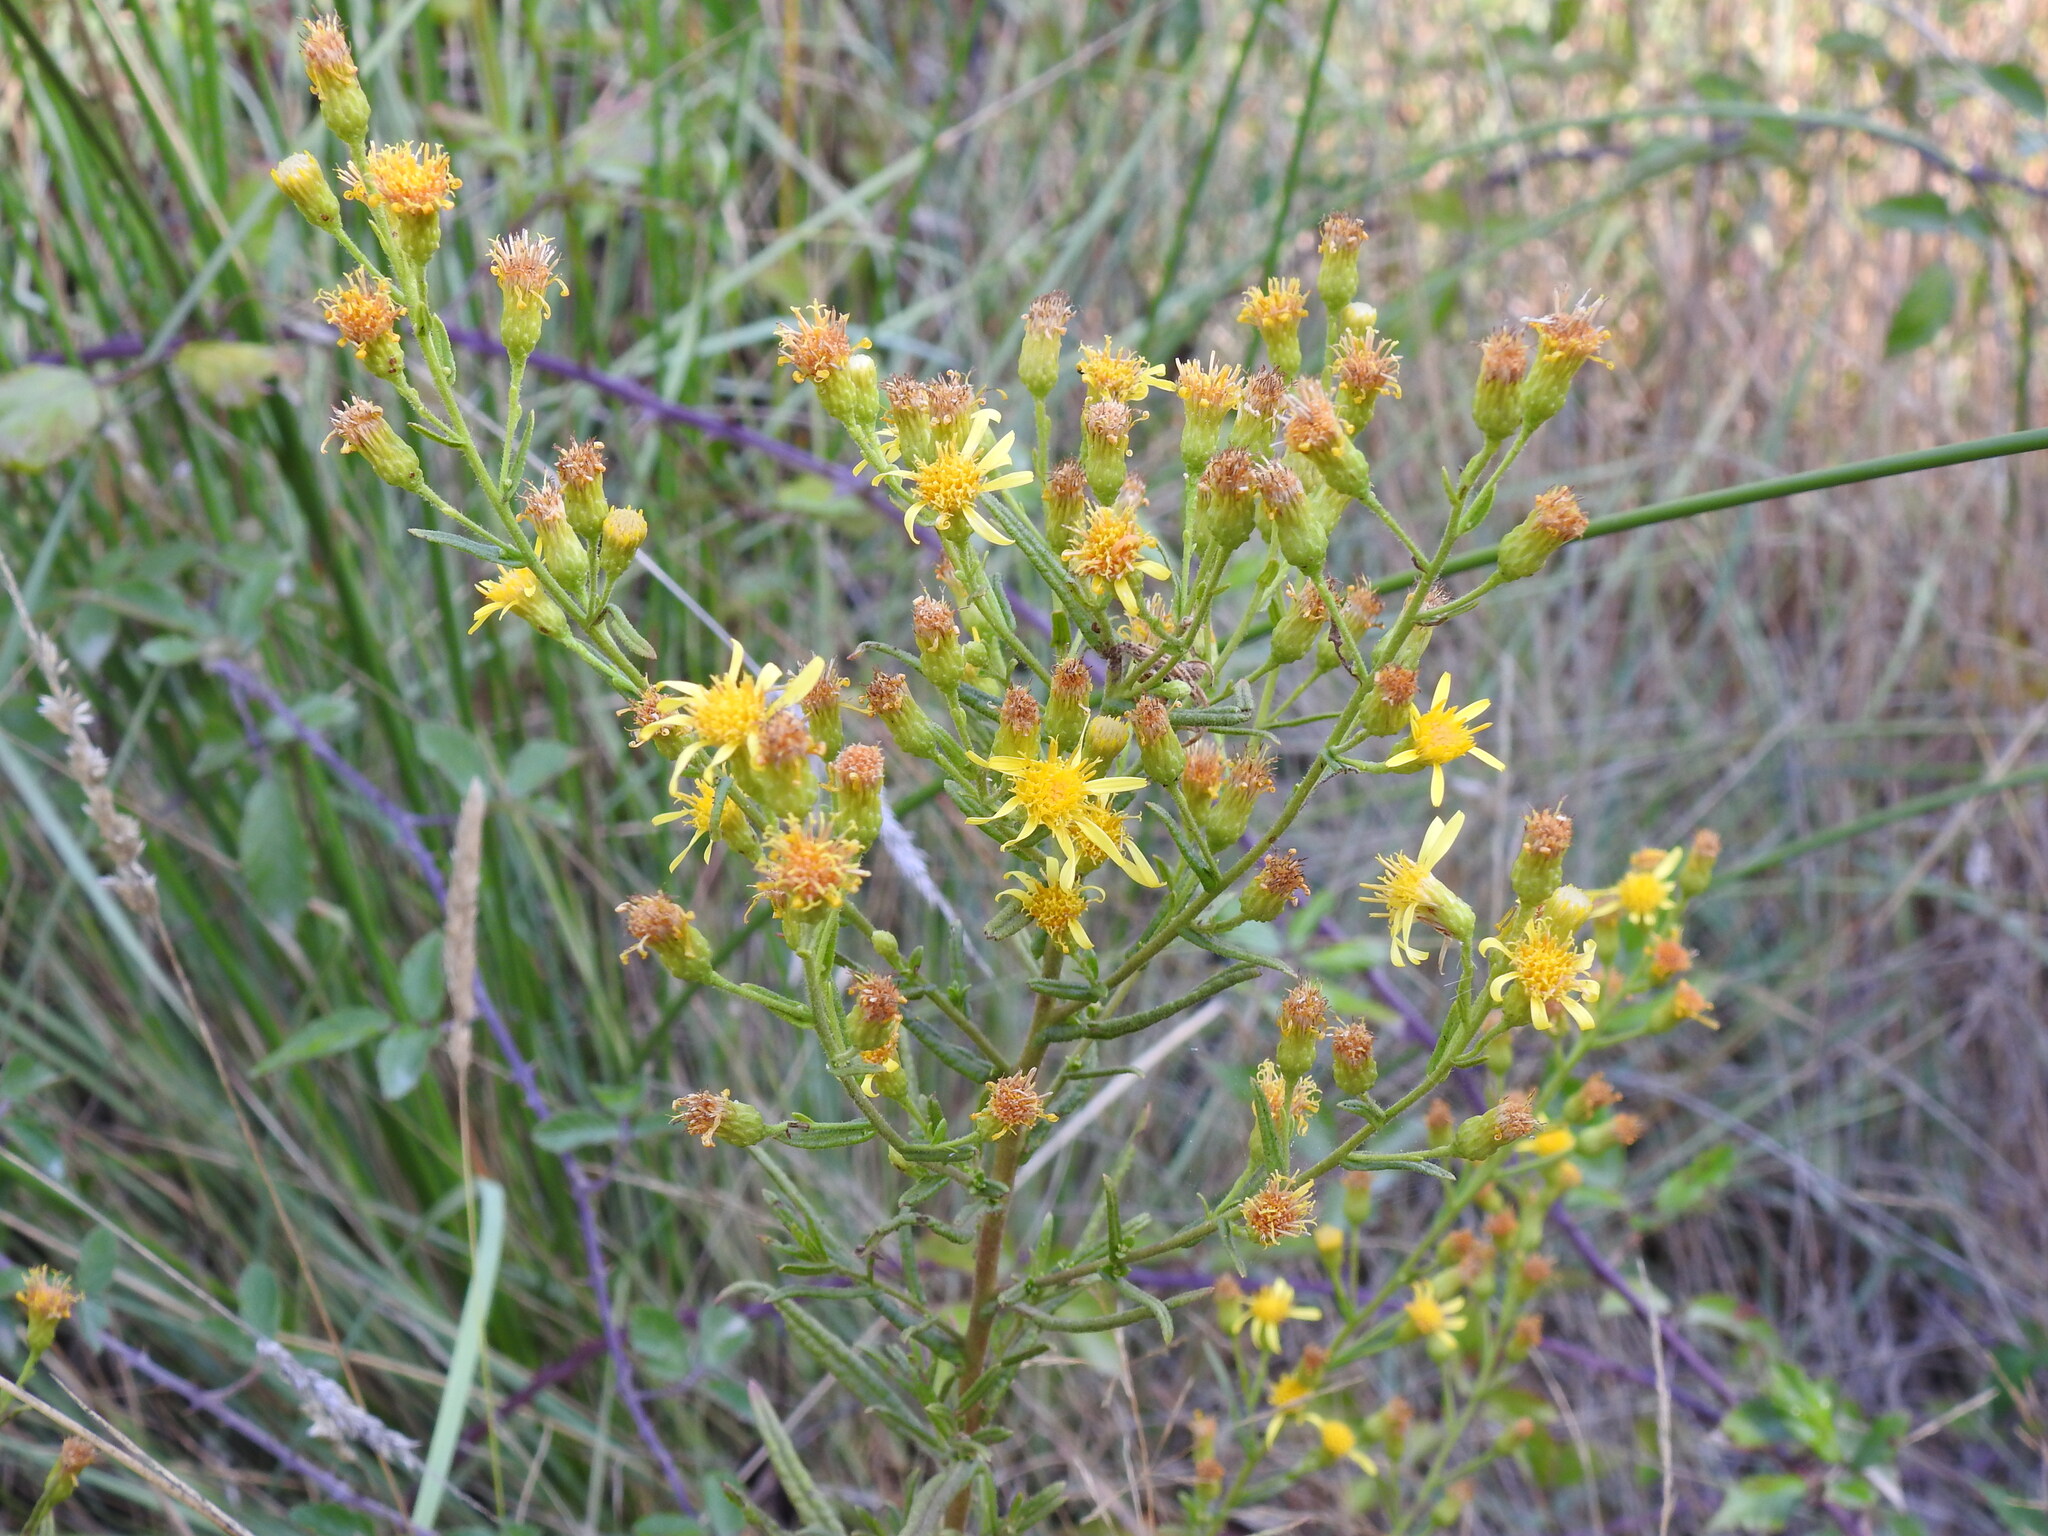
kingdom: Plantae
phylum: Tracheophyta
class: Magnoliopsida
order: Asterales
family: Asteraceae
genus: Dittrichia
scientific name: Dittrichia viscosa
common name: Woody fleabane
